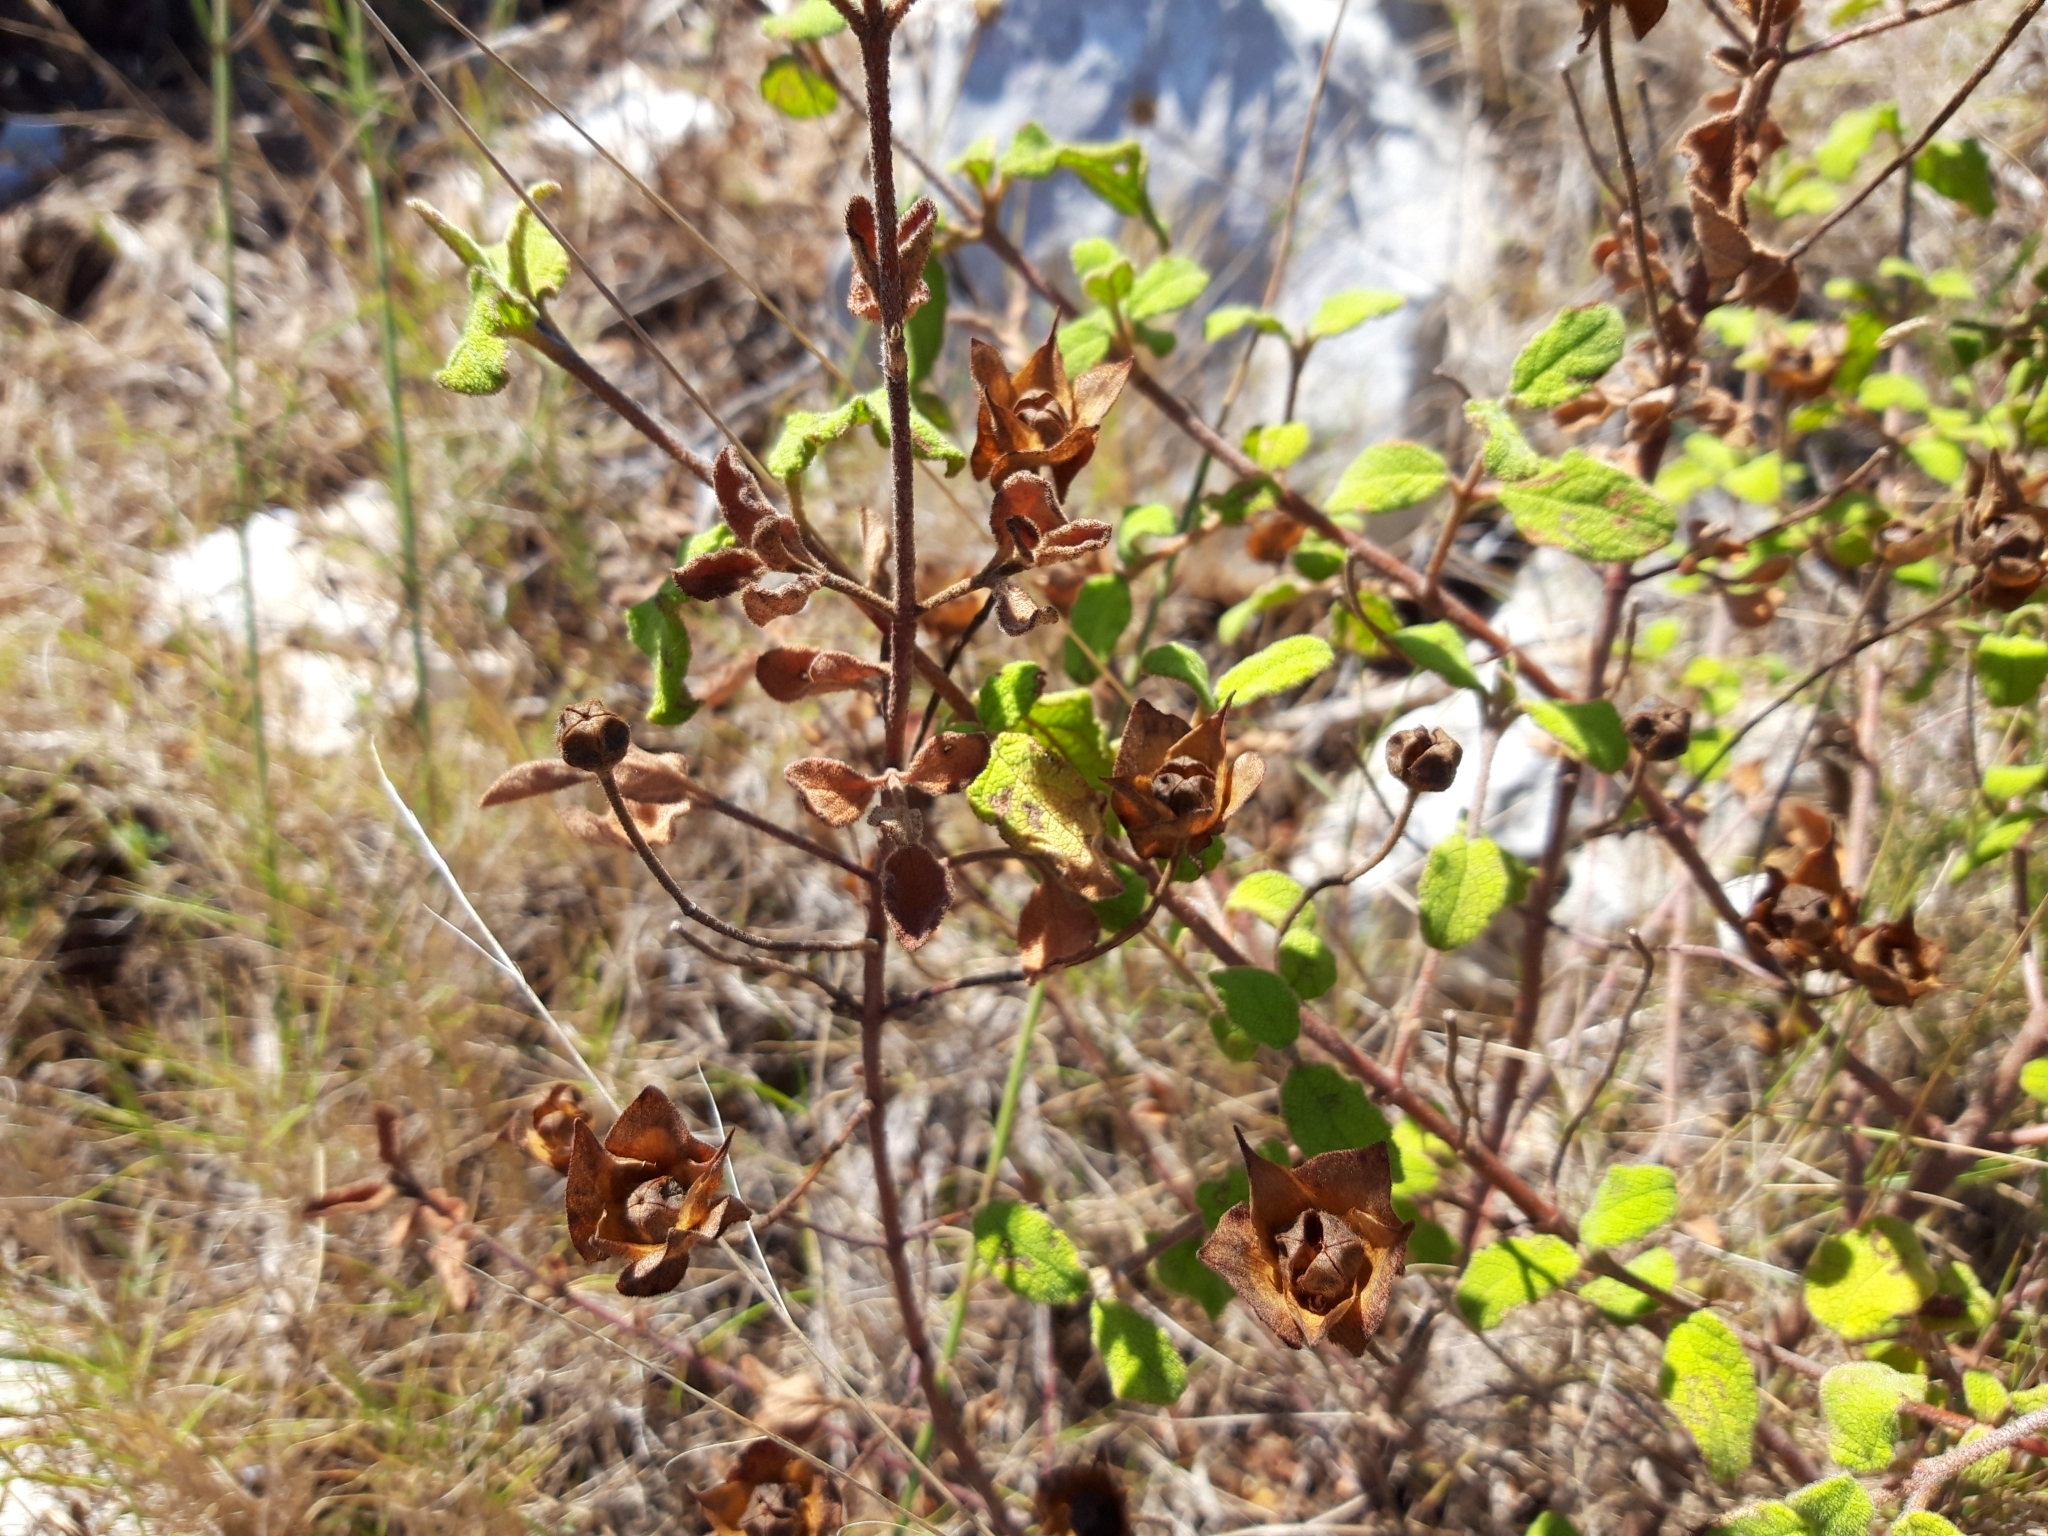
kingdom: Plantae
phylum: Tracheophyta
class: Magnoliopsida
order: Malvales
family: Cistaceae
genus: Cistus
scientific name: Cistus salviifolius
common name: Salvia cistus
